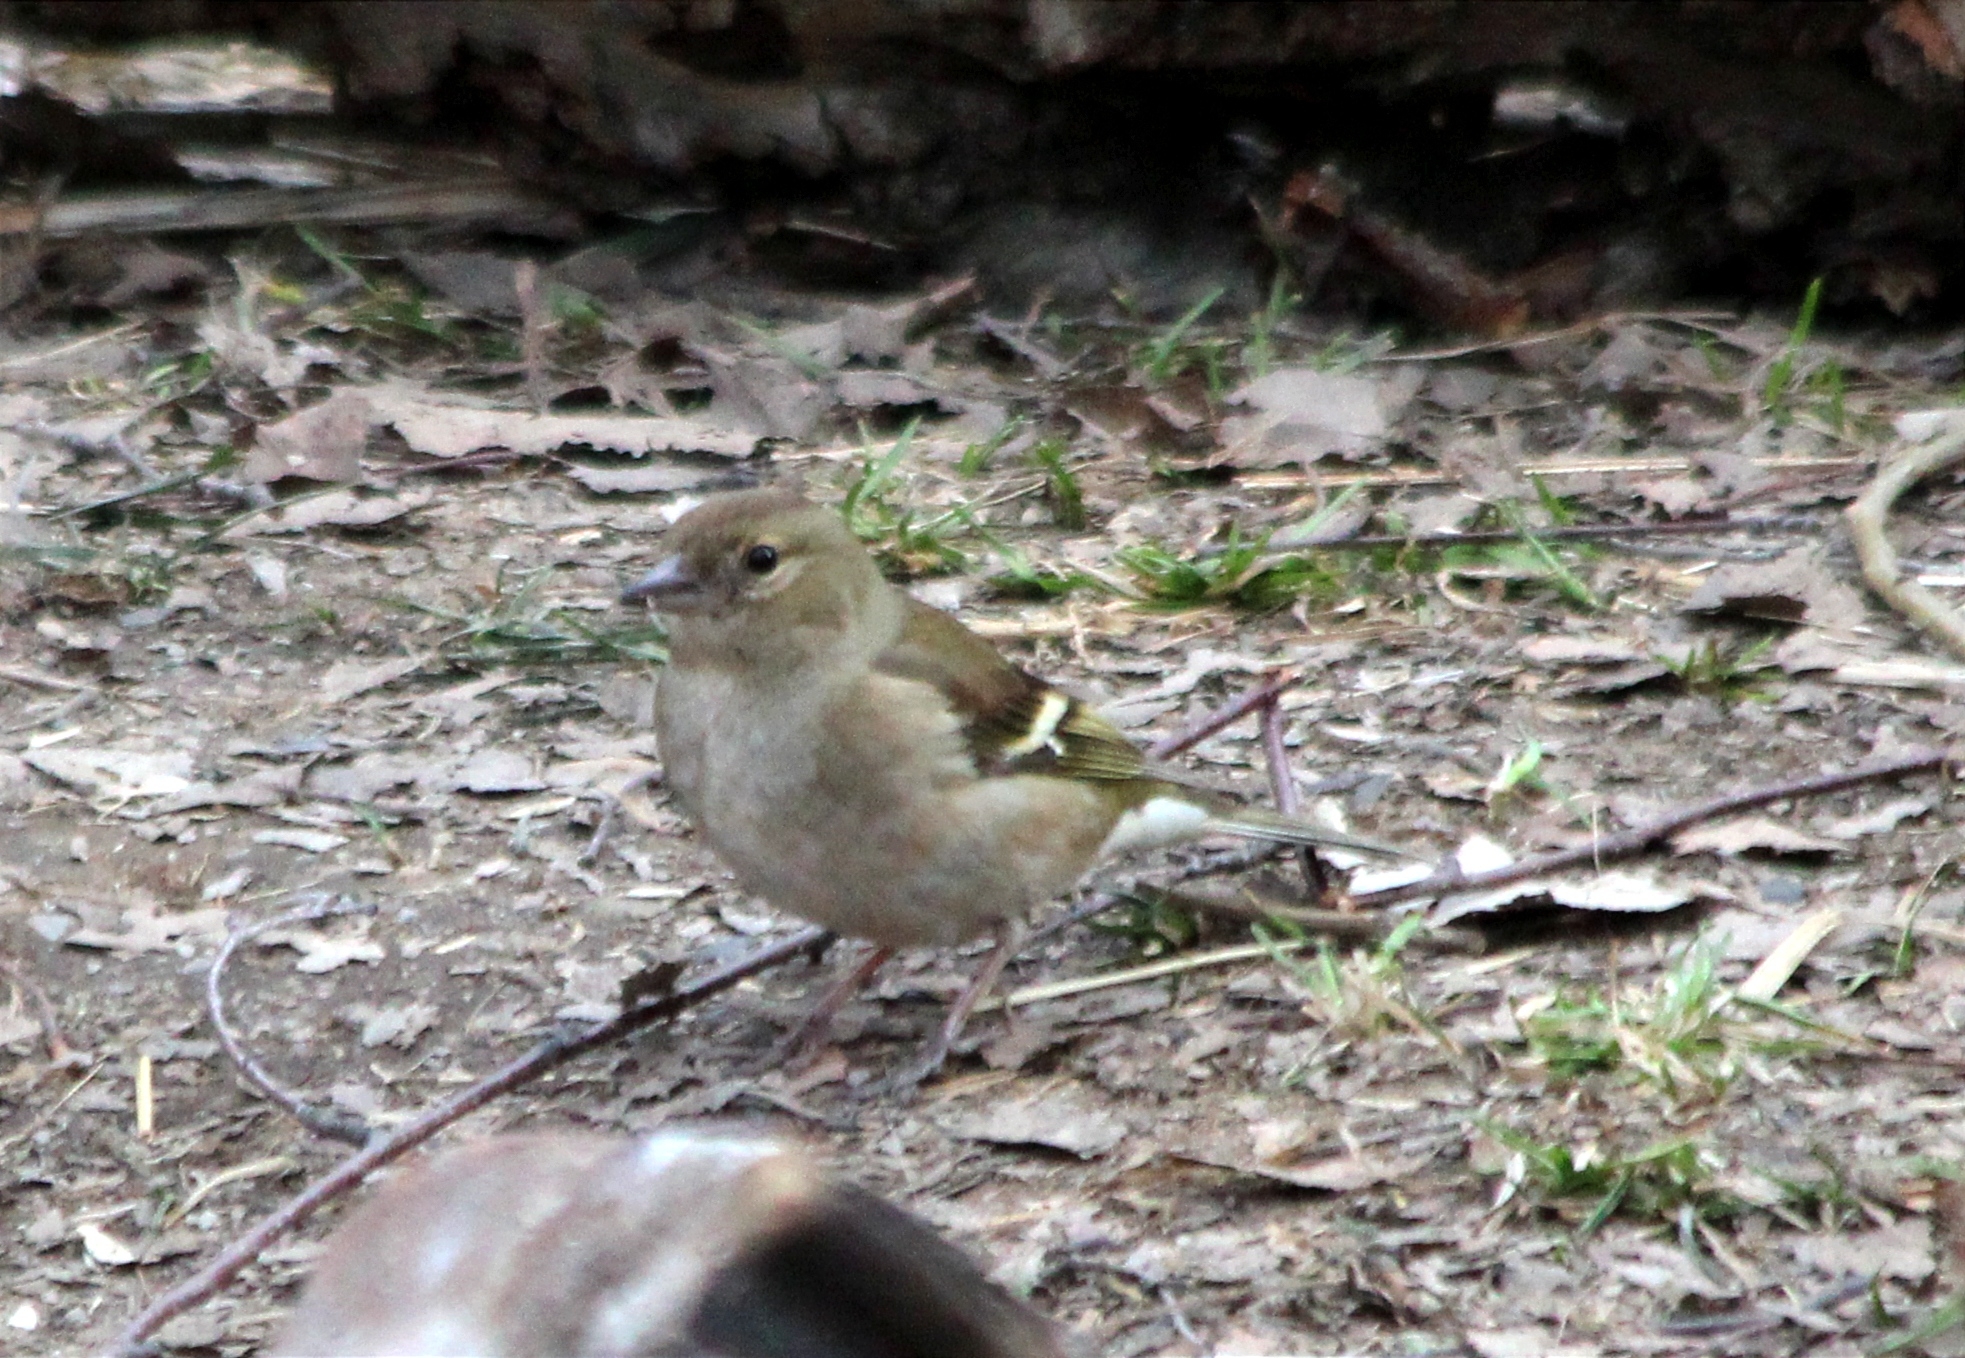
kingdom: Animalia
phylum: Chordata
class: Aves
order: Passeriformes
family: Fringillidae
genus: Fringilla
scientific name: Fringilla coelebs
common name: Common chaffinch
